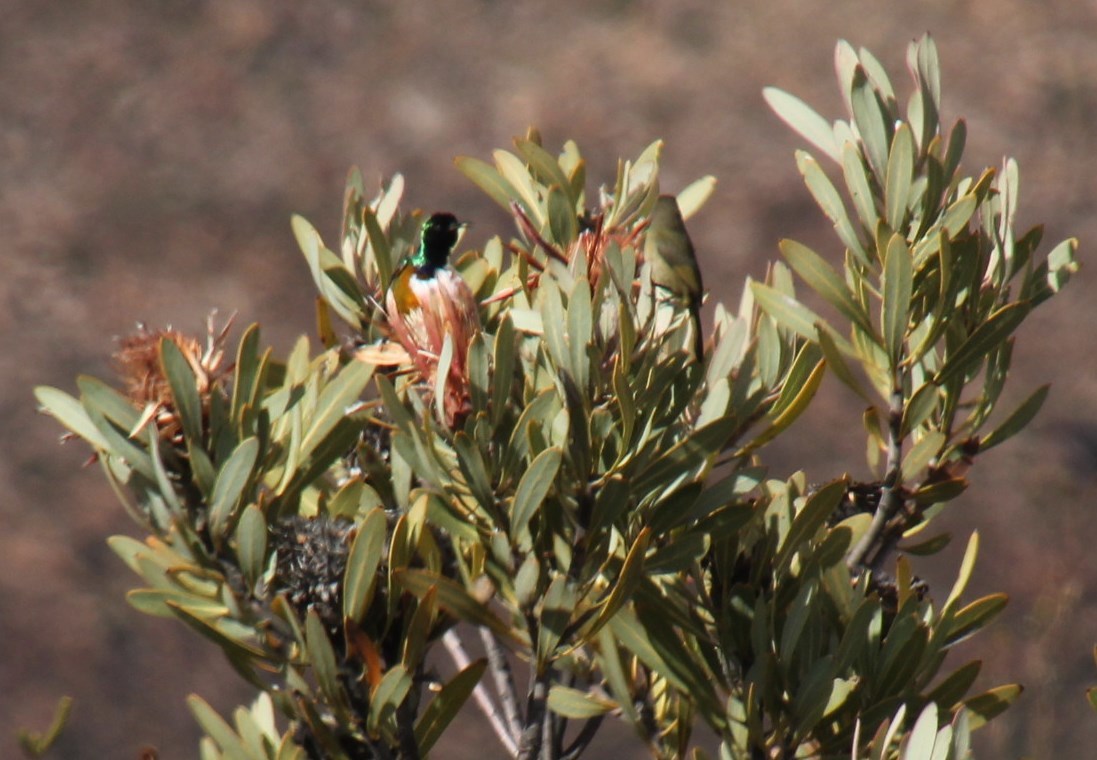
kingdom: Plantae
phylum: Tracheophyta
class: Magnoliopsida
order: Proteales
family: Proteaceae
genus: Protea
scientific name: Protea laurifolia
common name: Grey-leaf sugarbsh
